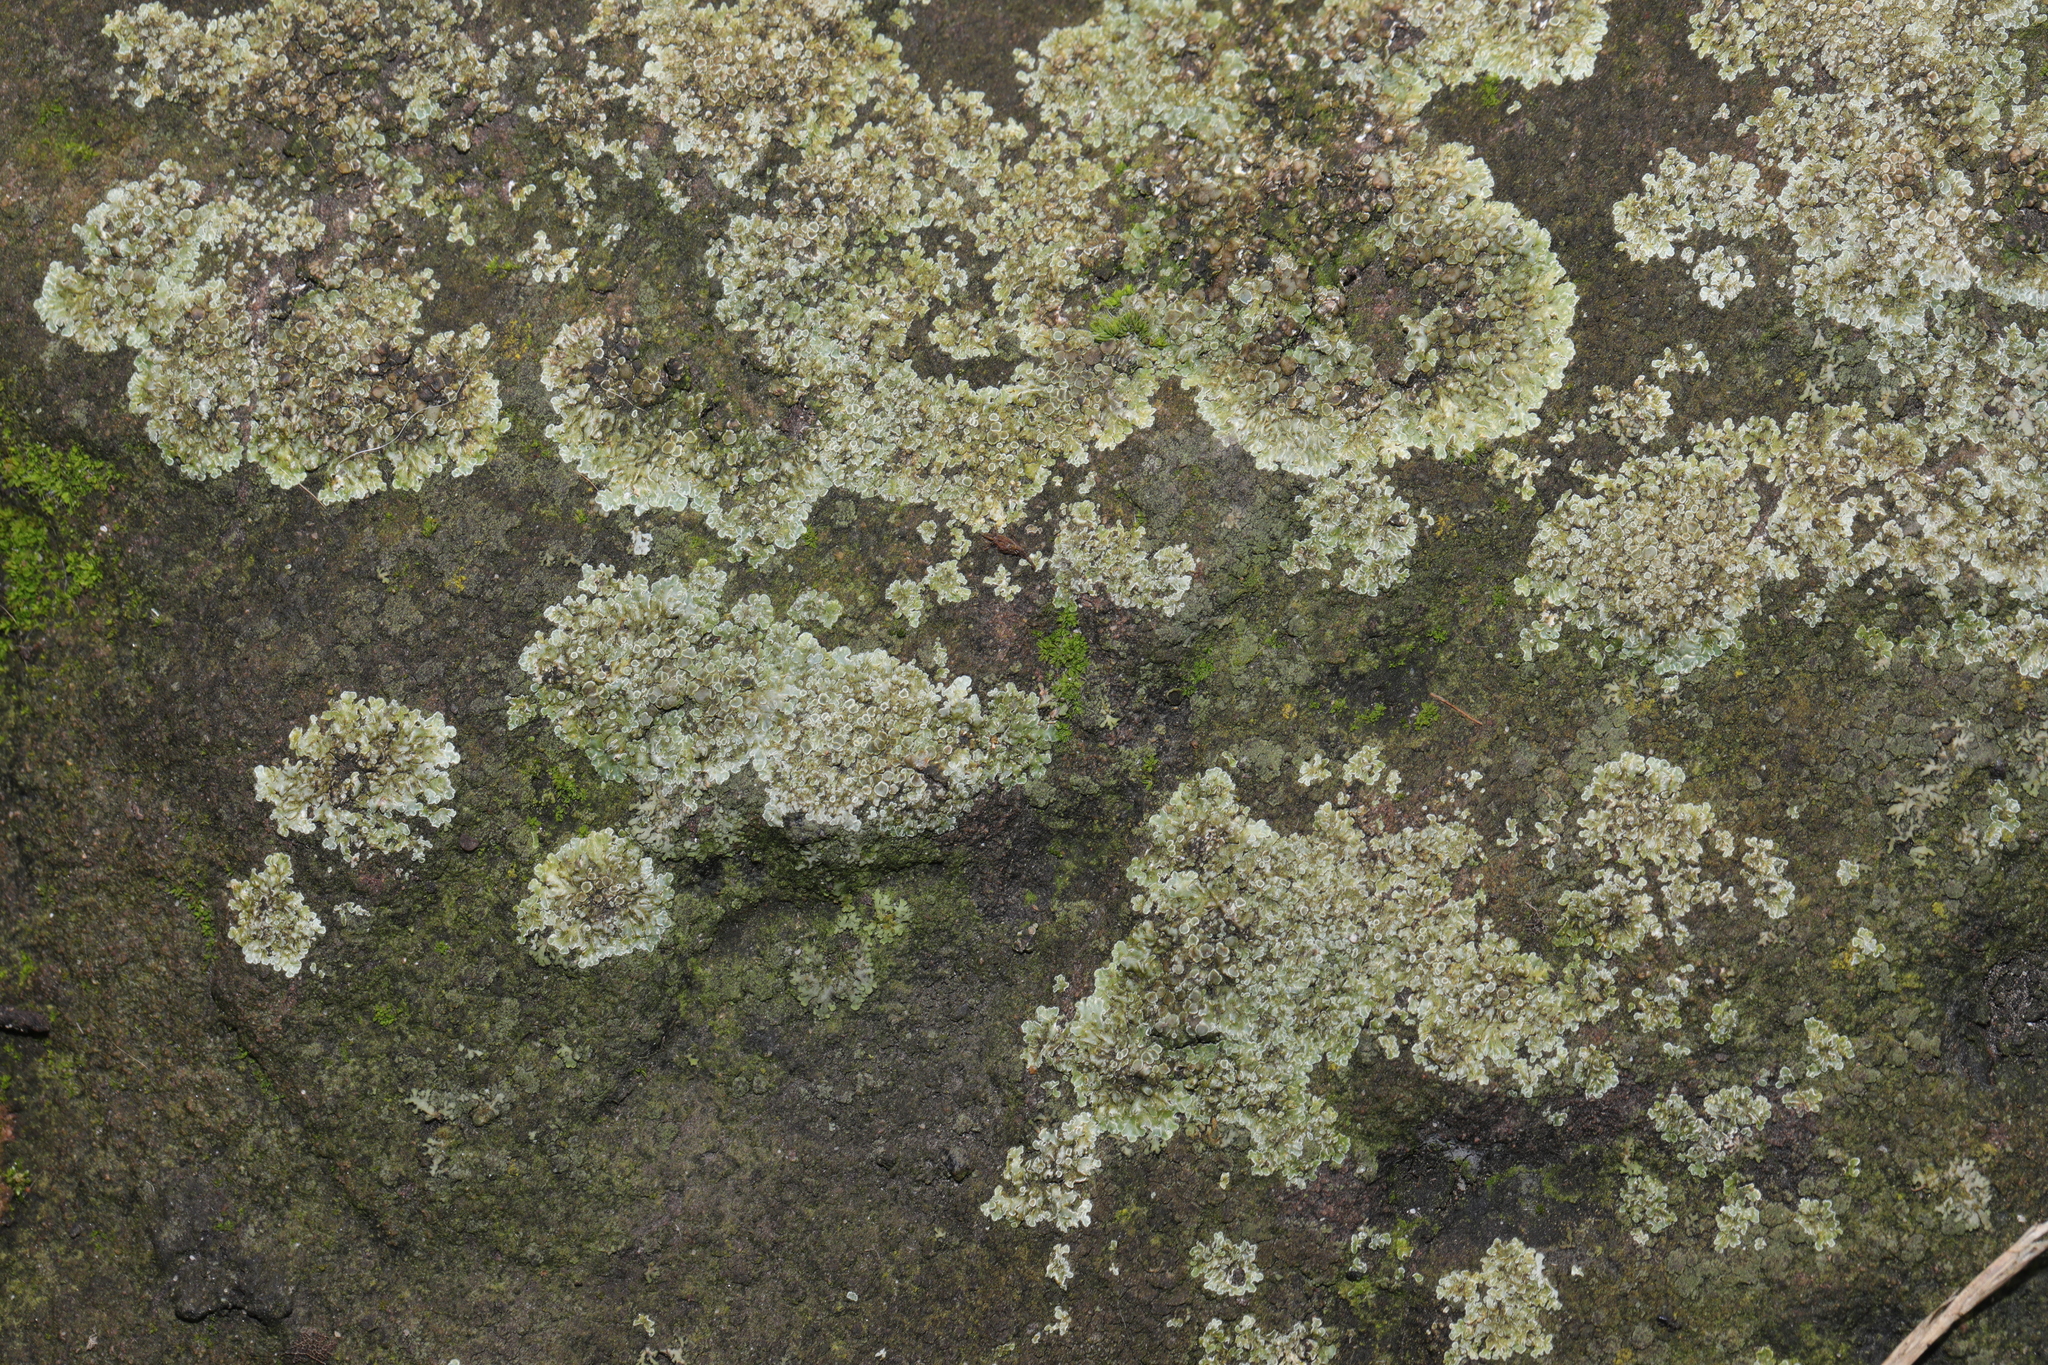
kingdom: Fungi
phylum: Ascomycota
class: Lecanoromycetes
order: Lecanorales
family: Lecanoraceae
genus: Protoparmeliopsis
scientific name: Protoparmeliopsis muralis
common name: Stonewall rim lichen
